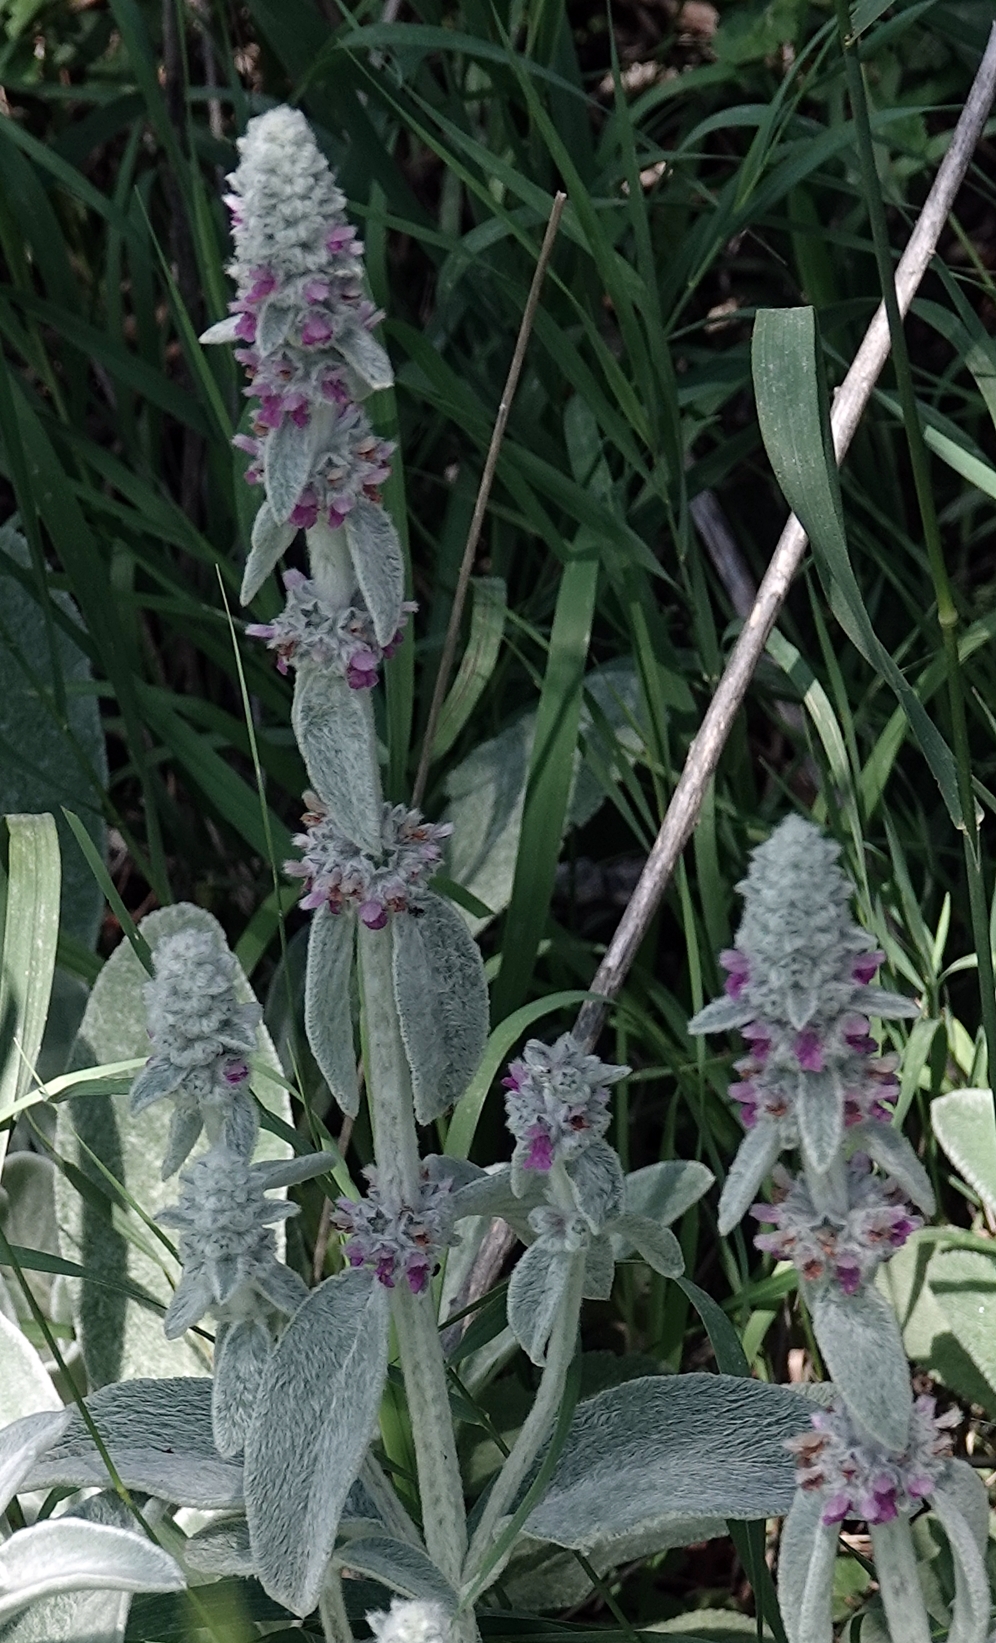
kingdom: Plantae
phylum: Tracheophyta
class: Magnoliopsida
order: Lamiales
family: Lamiaceae
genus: Stachys
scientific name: Stachys byzantina
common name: Lamb's-ear
